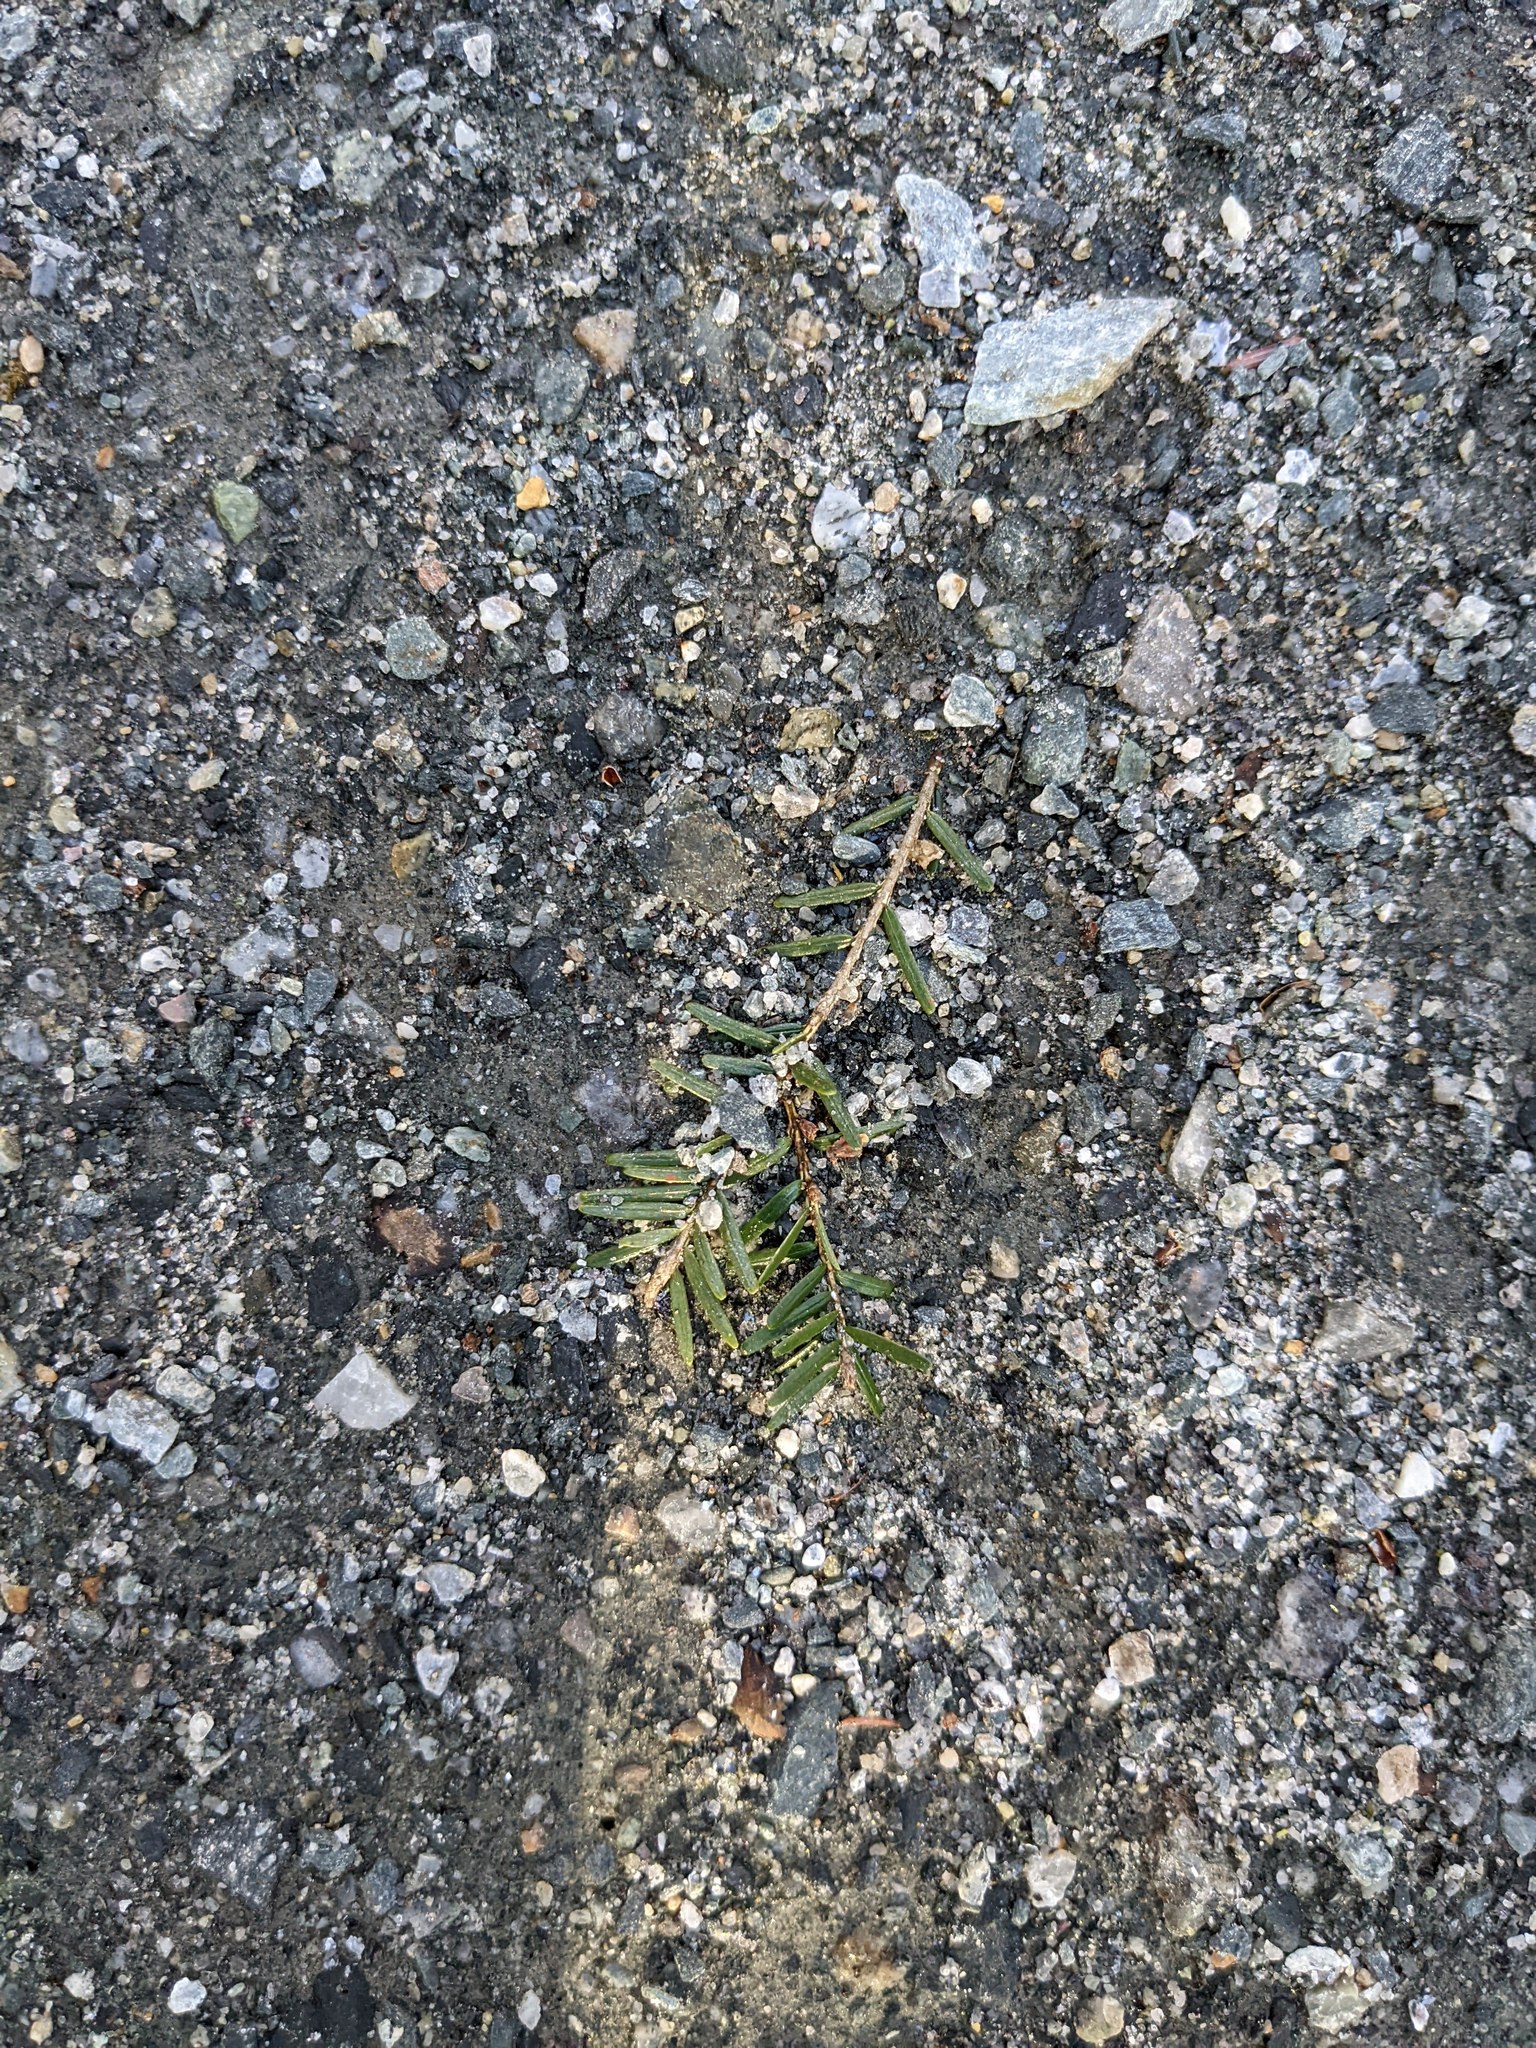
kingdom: Plantae
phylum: Tracheophyta
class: Pinopsida
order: Pinales
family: Pinaceae
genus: Tsuga
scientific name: Tsuga canadensis
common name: Eastern hemlock
